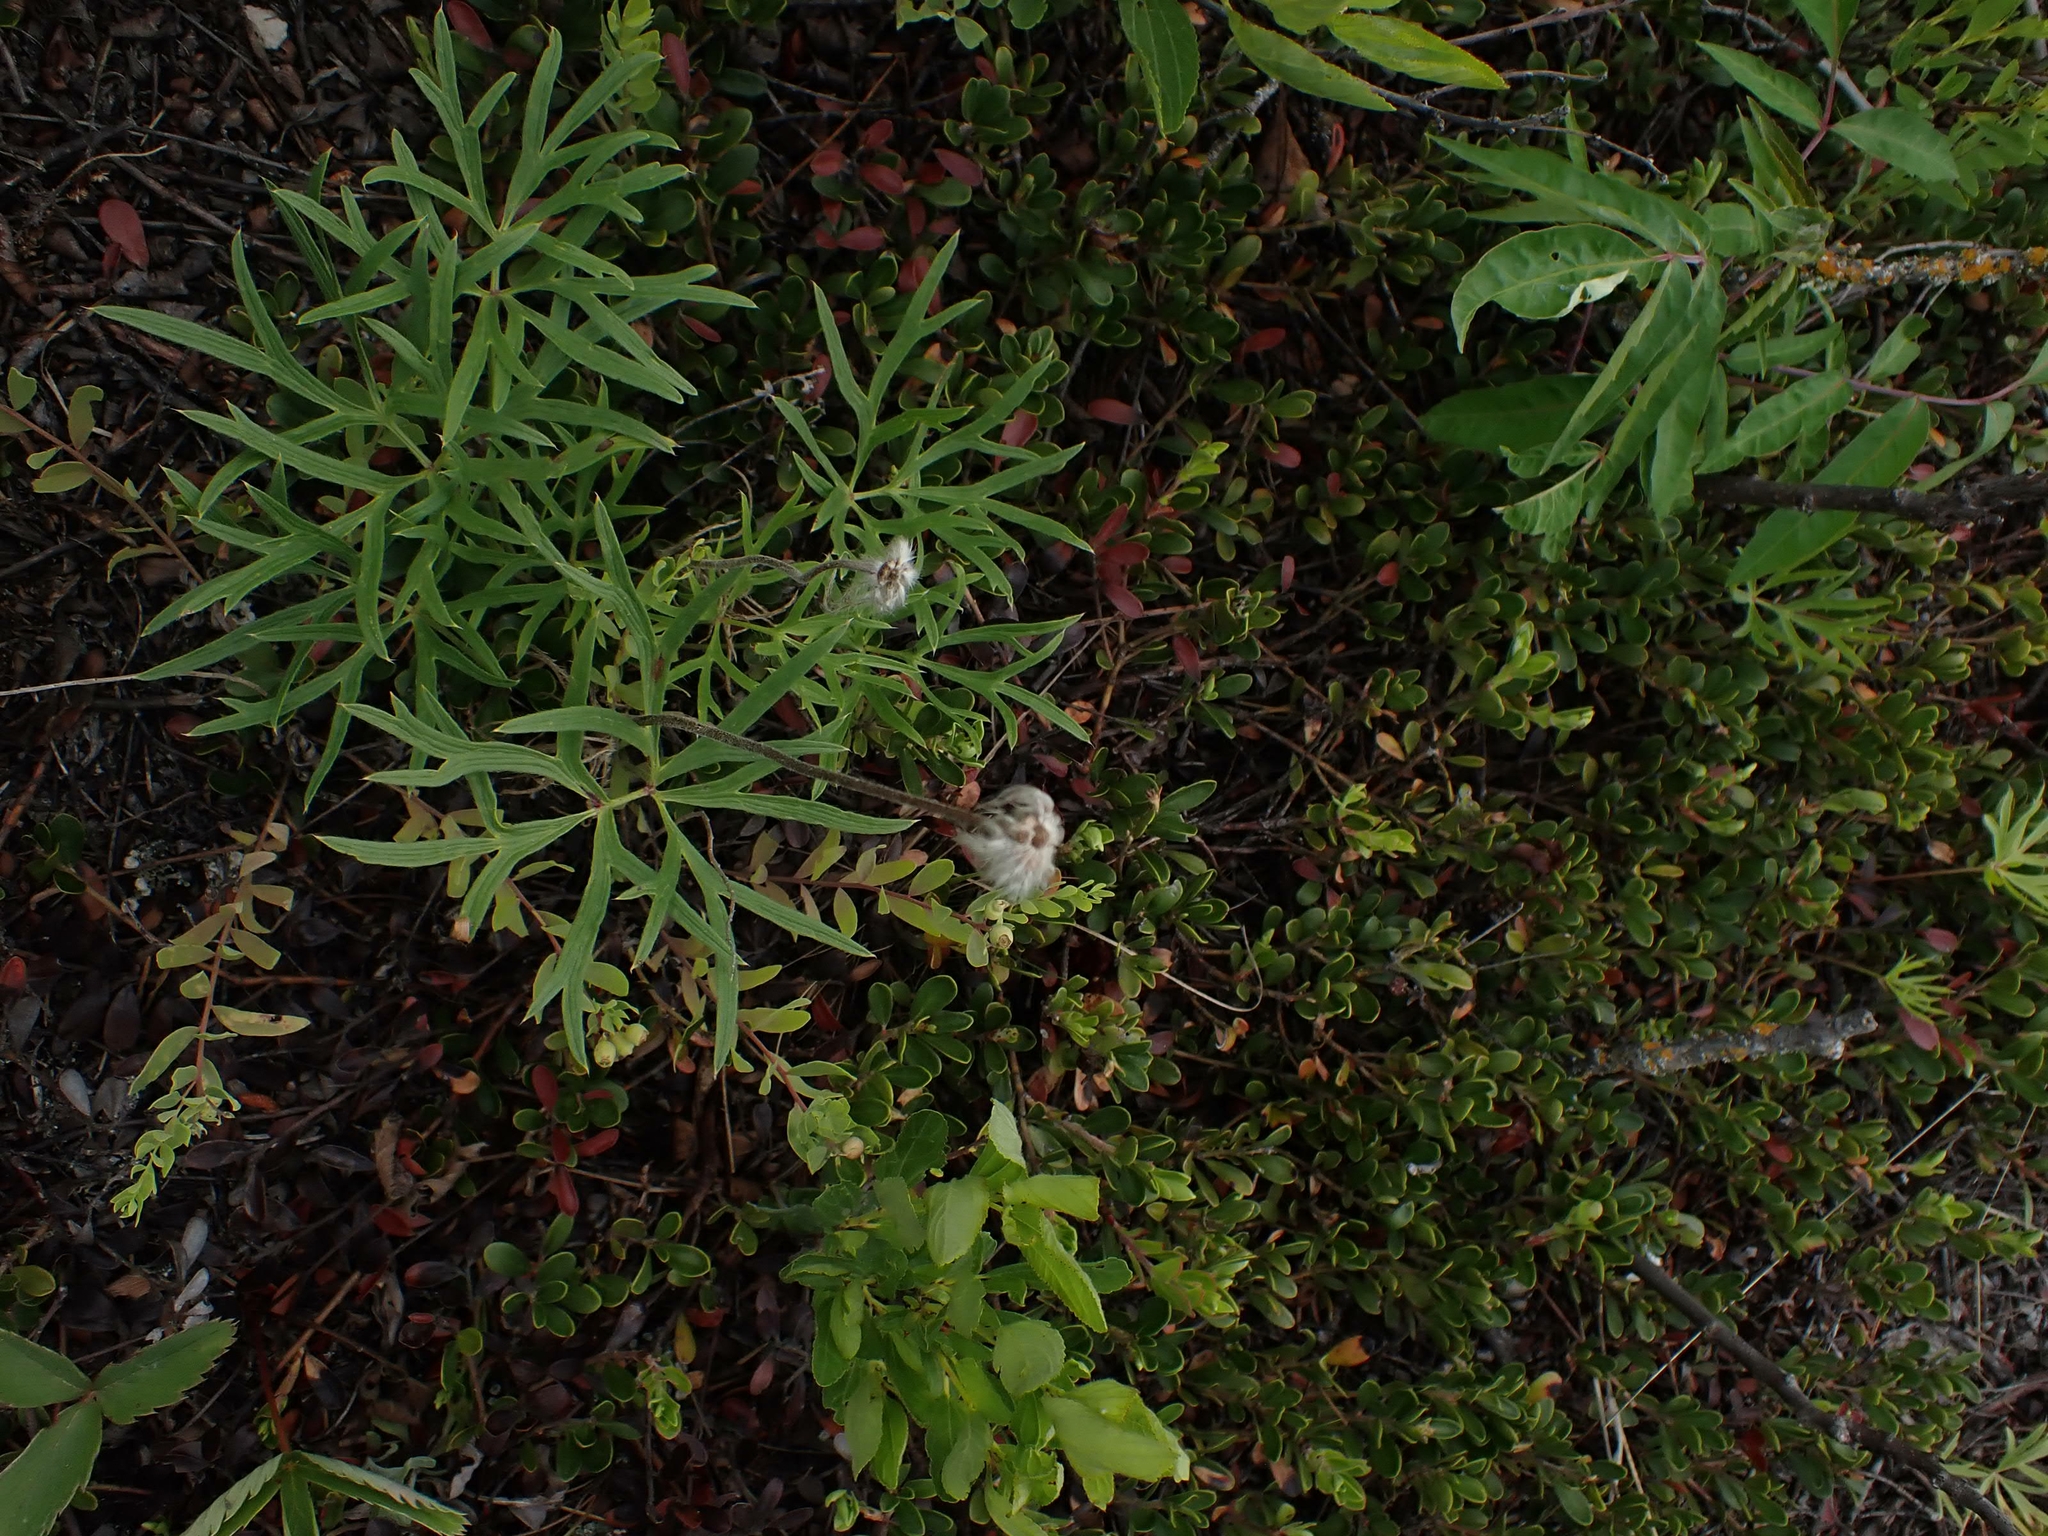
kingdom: Plantae
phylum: Tracheophyta
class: Magnoliopsida
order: Ranunculales
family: Ranunculaceae
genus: Pulsatilla
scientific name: Pulsatilla nuttalliana
